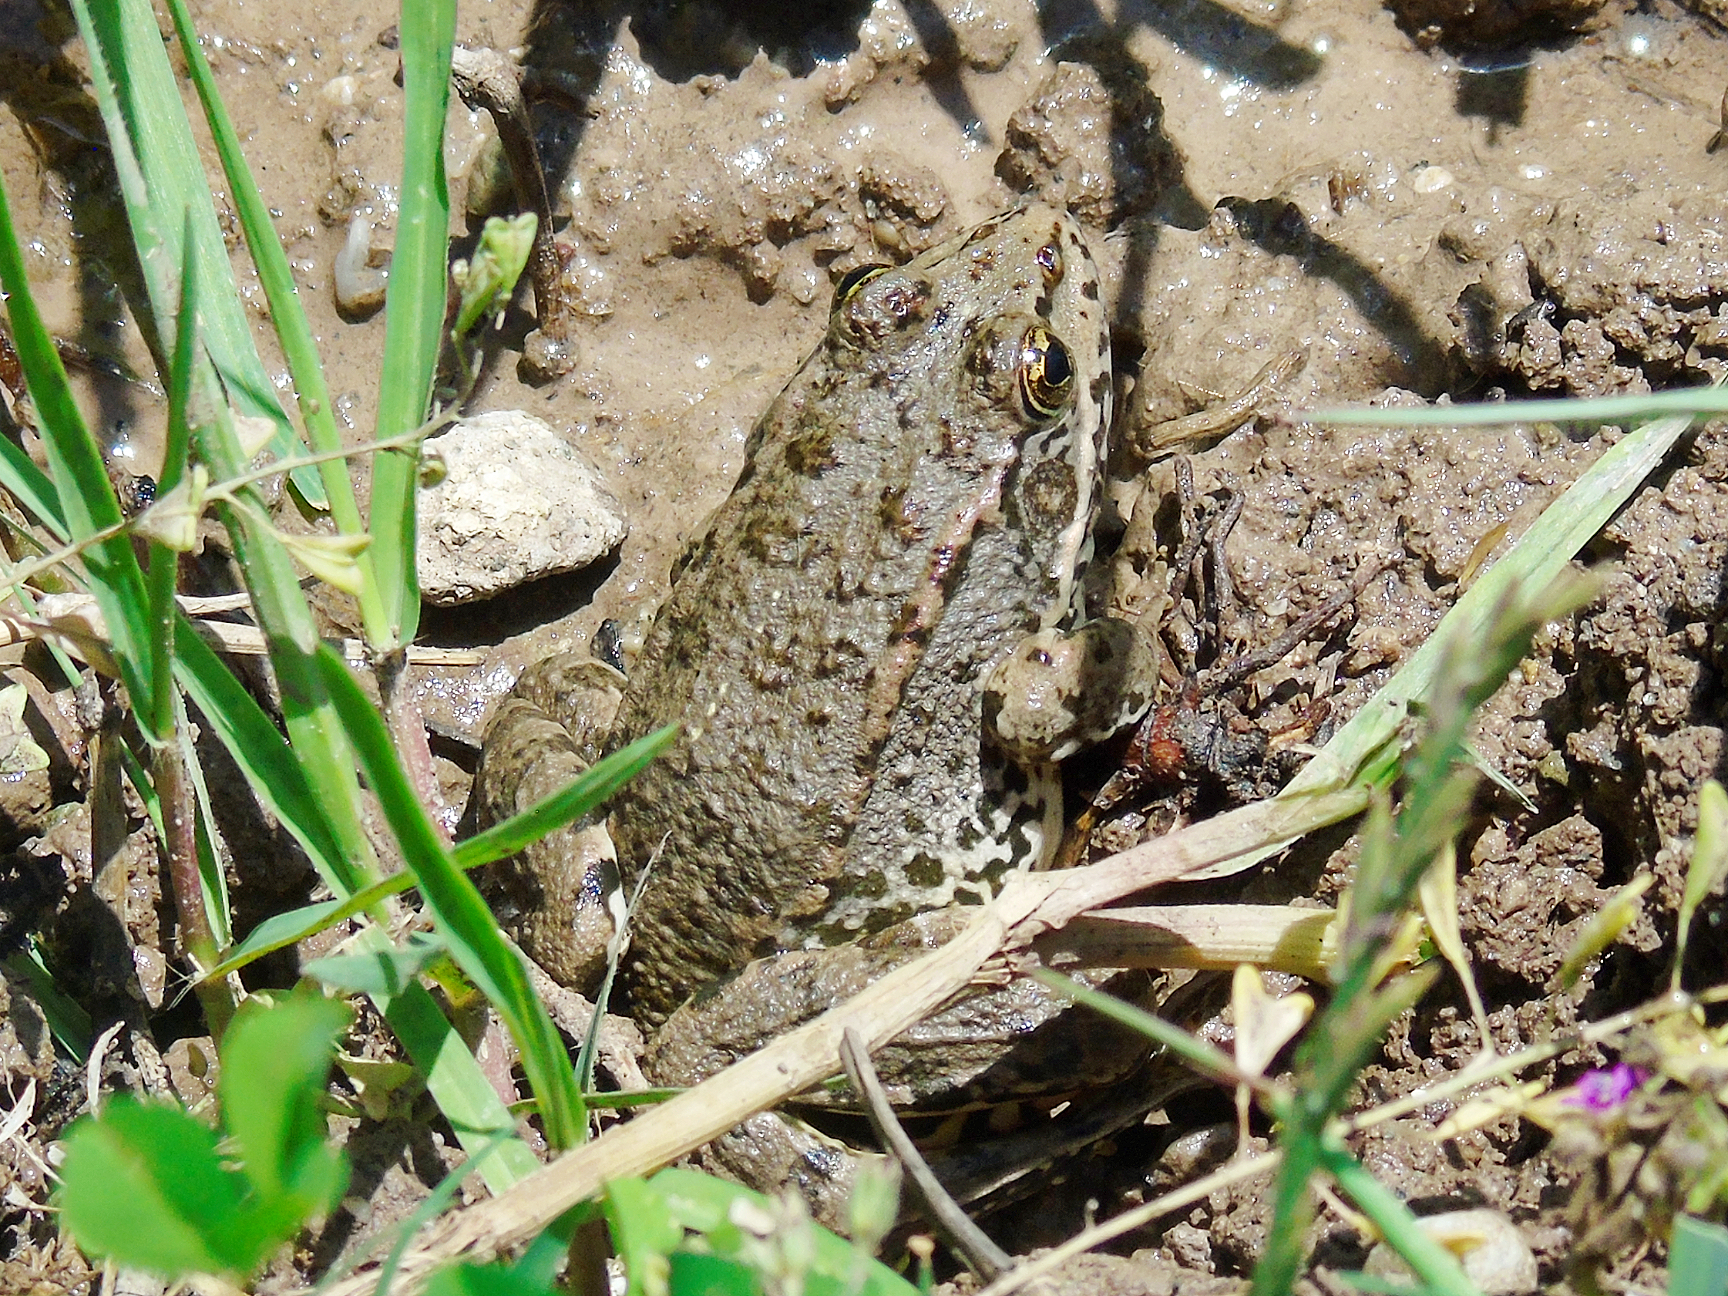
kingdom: Animalia
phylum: Chordata
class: Amphibia
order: Anura
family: Ranidae
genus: Pelophylax
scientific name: Pelophylax ridibundus
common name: Marsh frog
